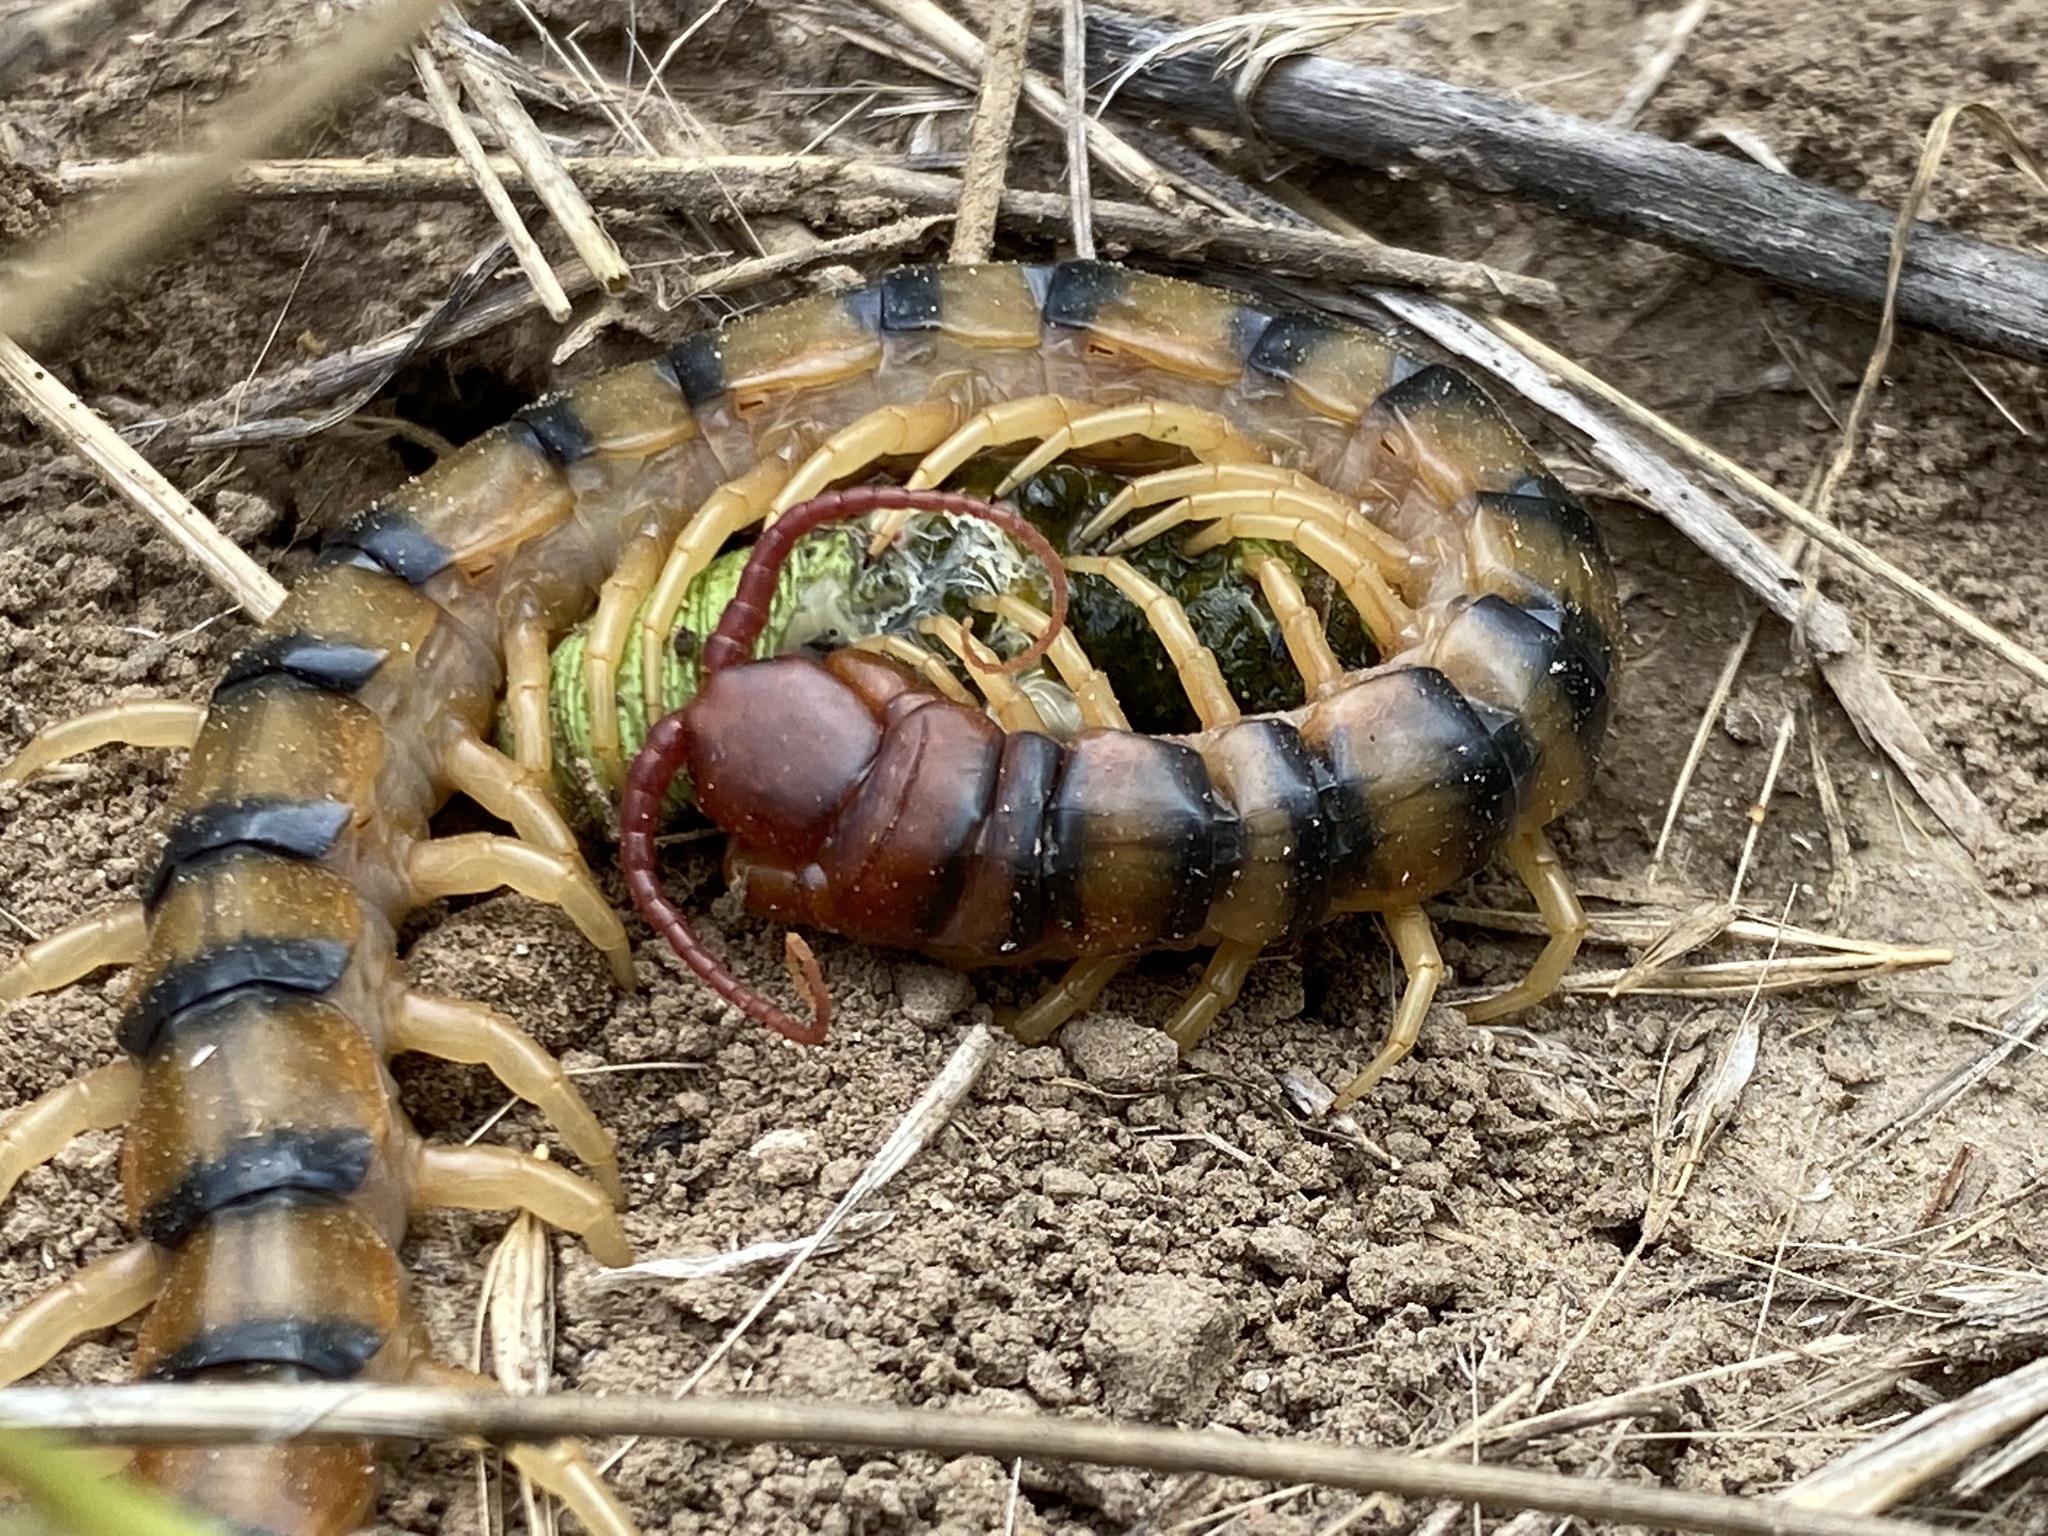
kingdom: Animalia
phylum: Arthropoda
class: Chilopoda
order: Scolopendromorpha
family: Scolopendridae
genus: Scolopendra
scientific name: Scolopendra polymorpha
